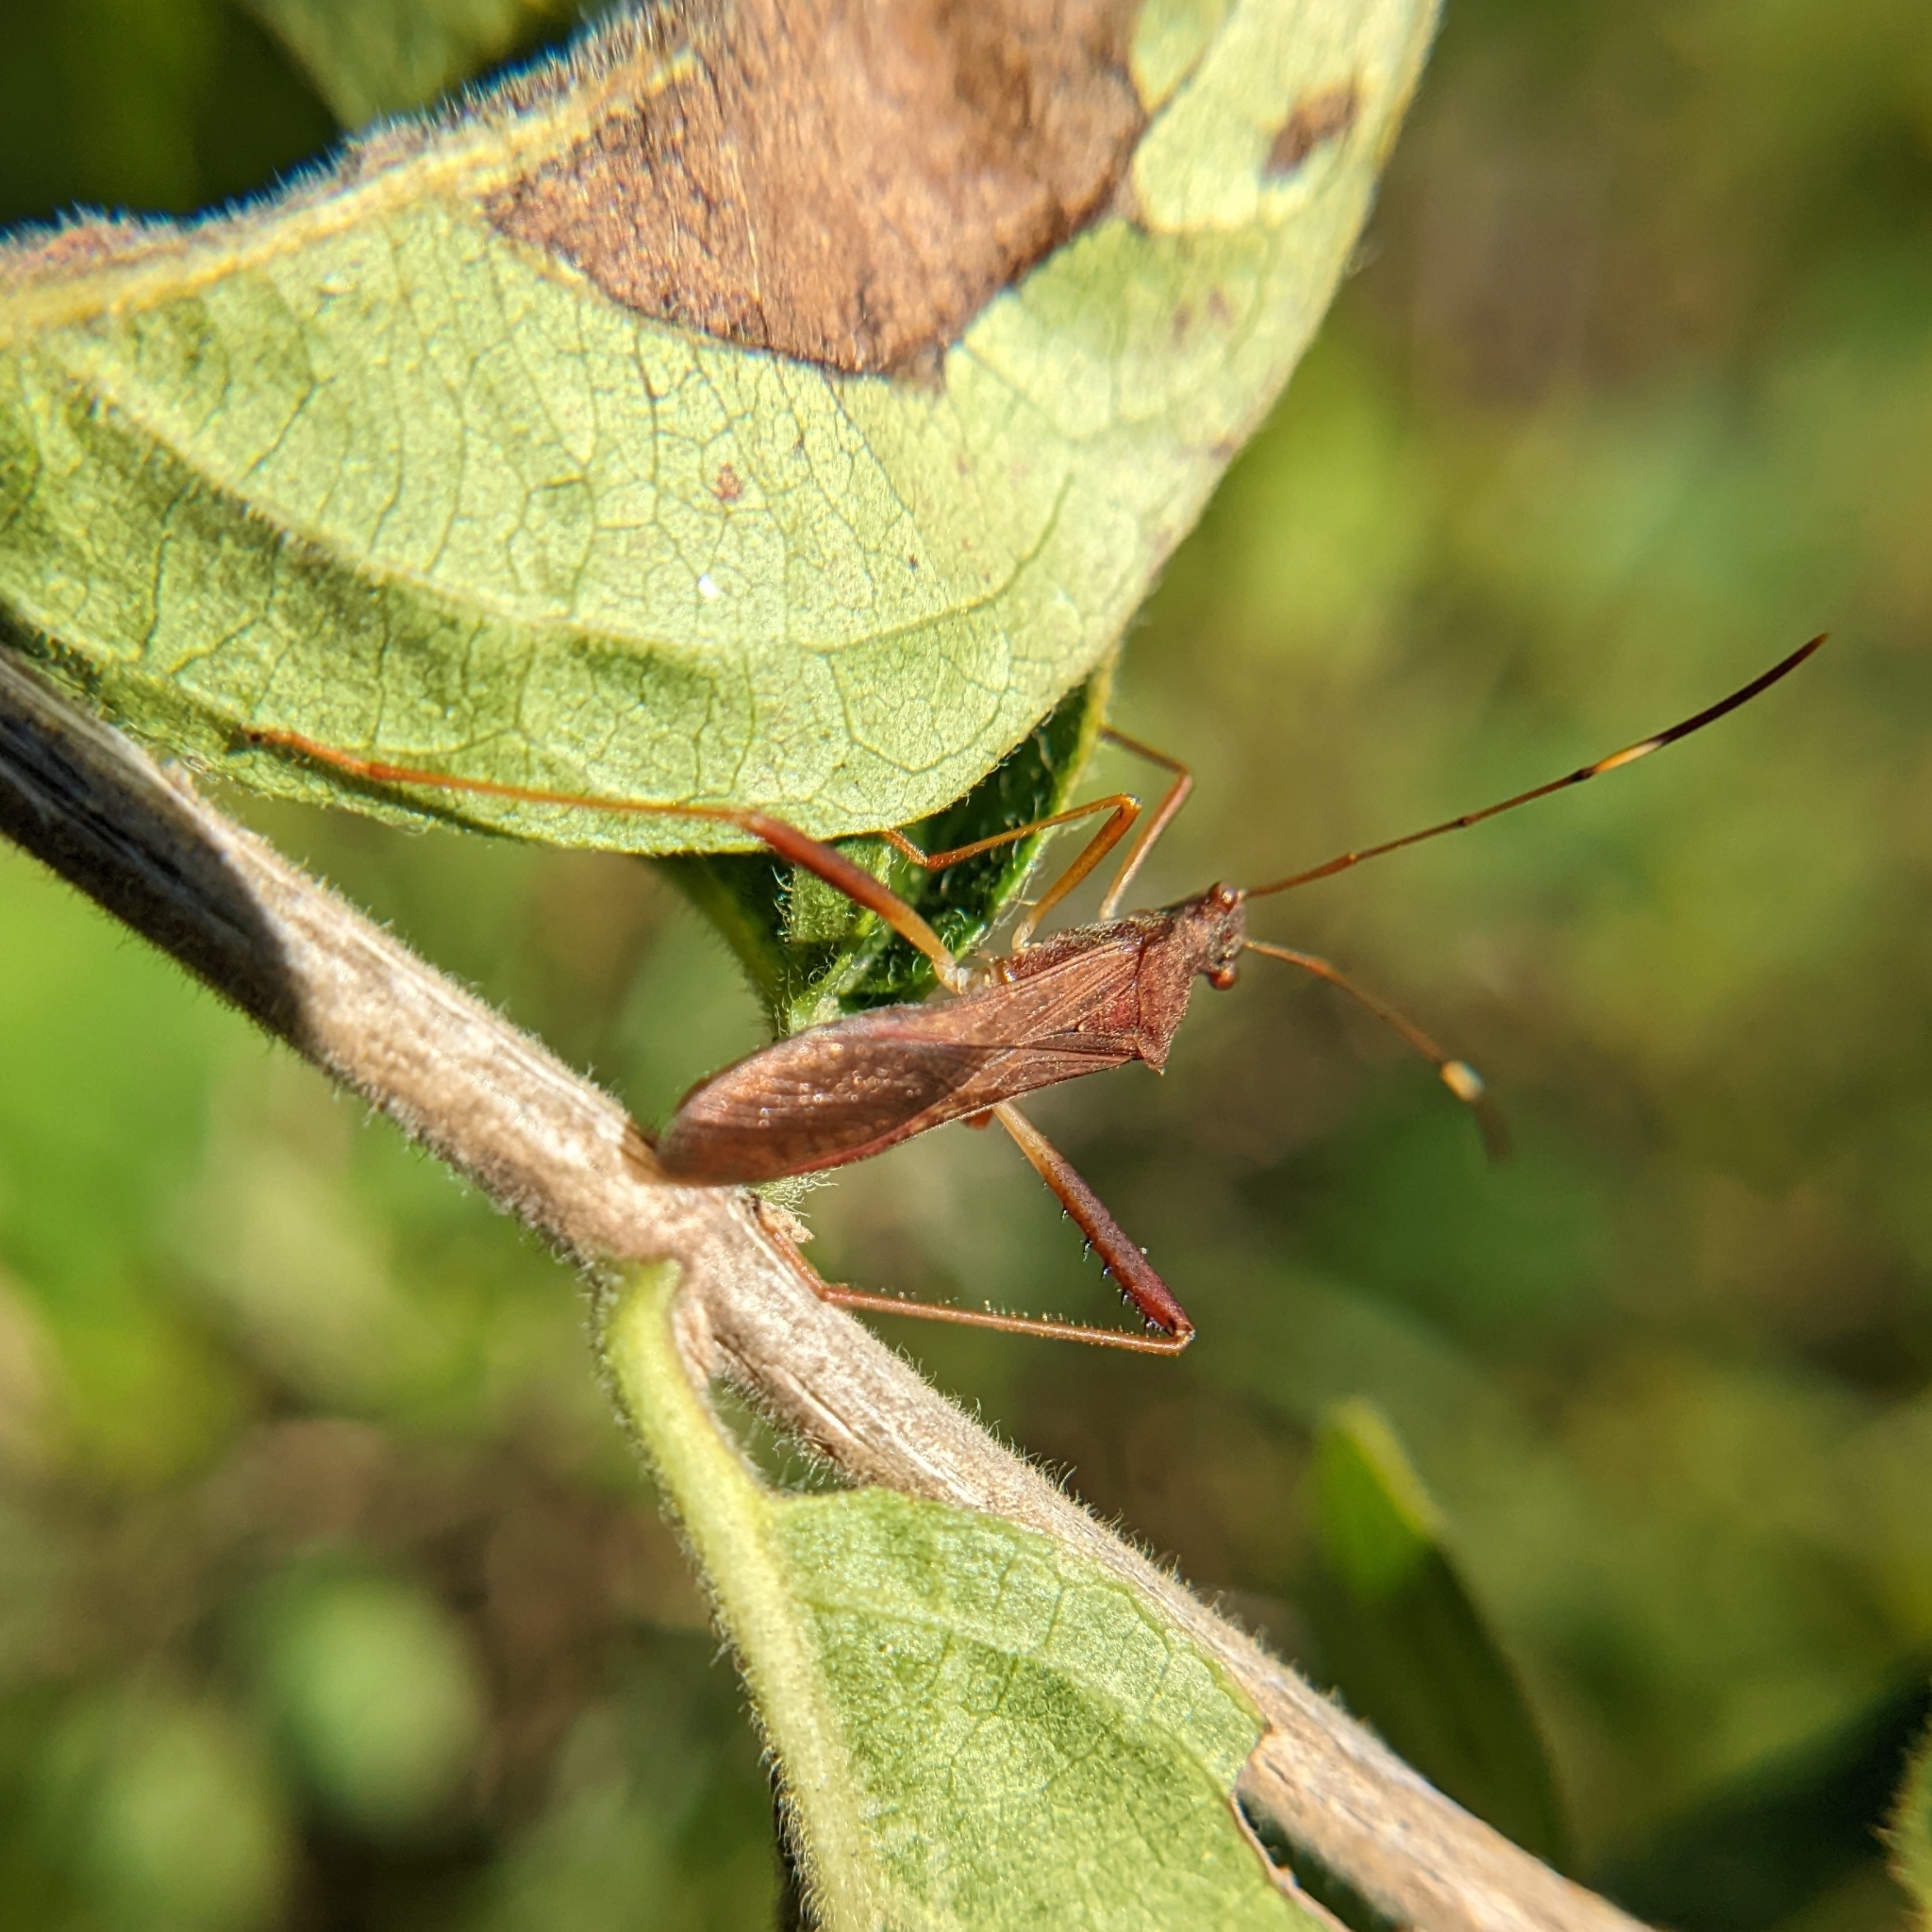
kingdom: Animalia
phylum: Arthropoda
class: Insecta
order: Hemiptera
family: Alydidae
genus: Megalotomus
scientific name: Megalotomus quinquespinosus
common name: Lupine bug
